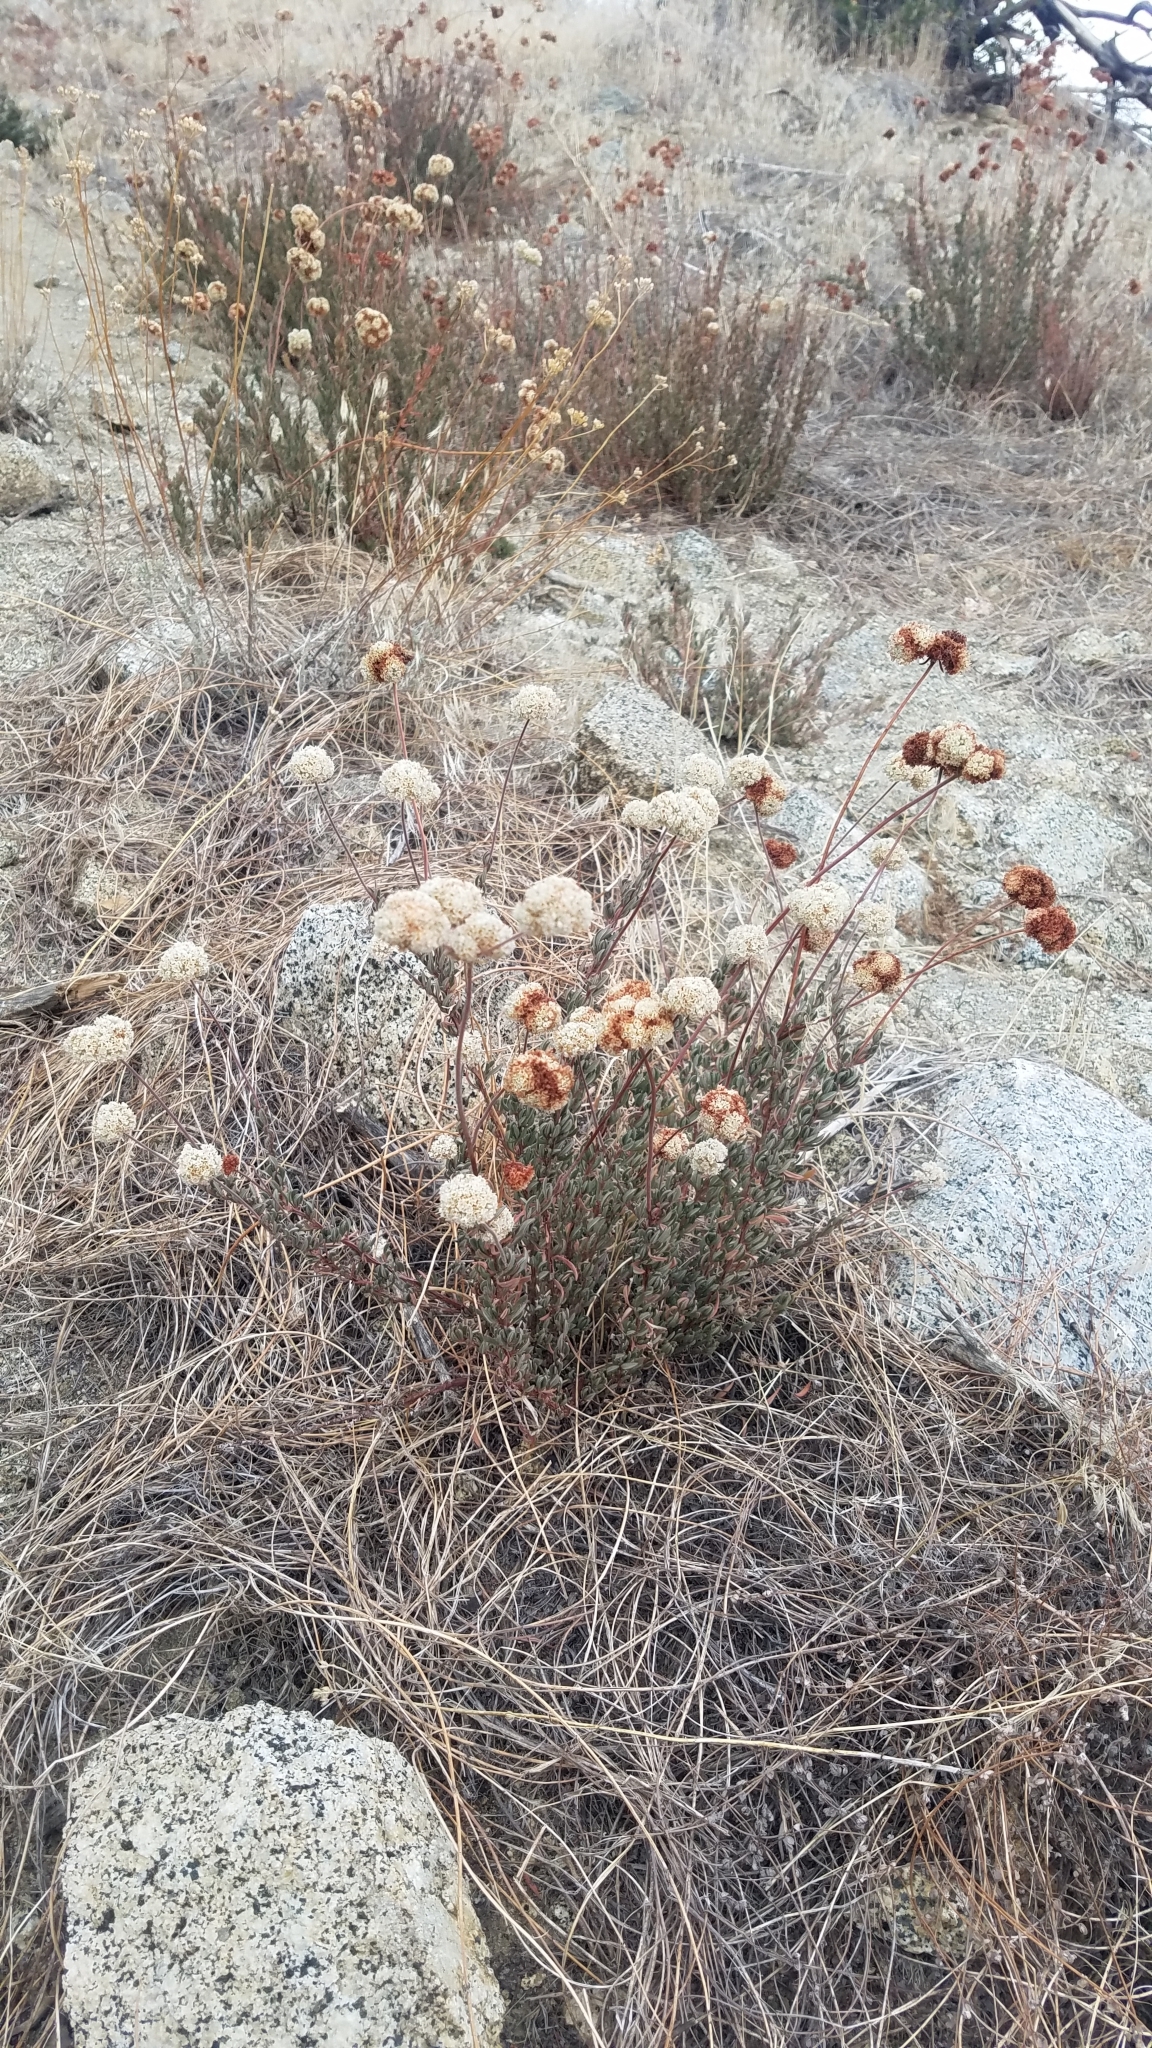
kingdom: Plantae
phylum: Tracheophyta
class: Magnoliopsida
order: Caryophyllales
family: Polygonaceae
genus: Eriogonum
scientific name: Eriogonum fasciculatum
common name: California wild buckwheat
